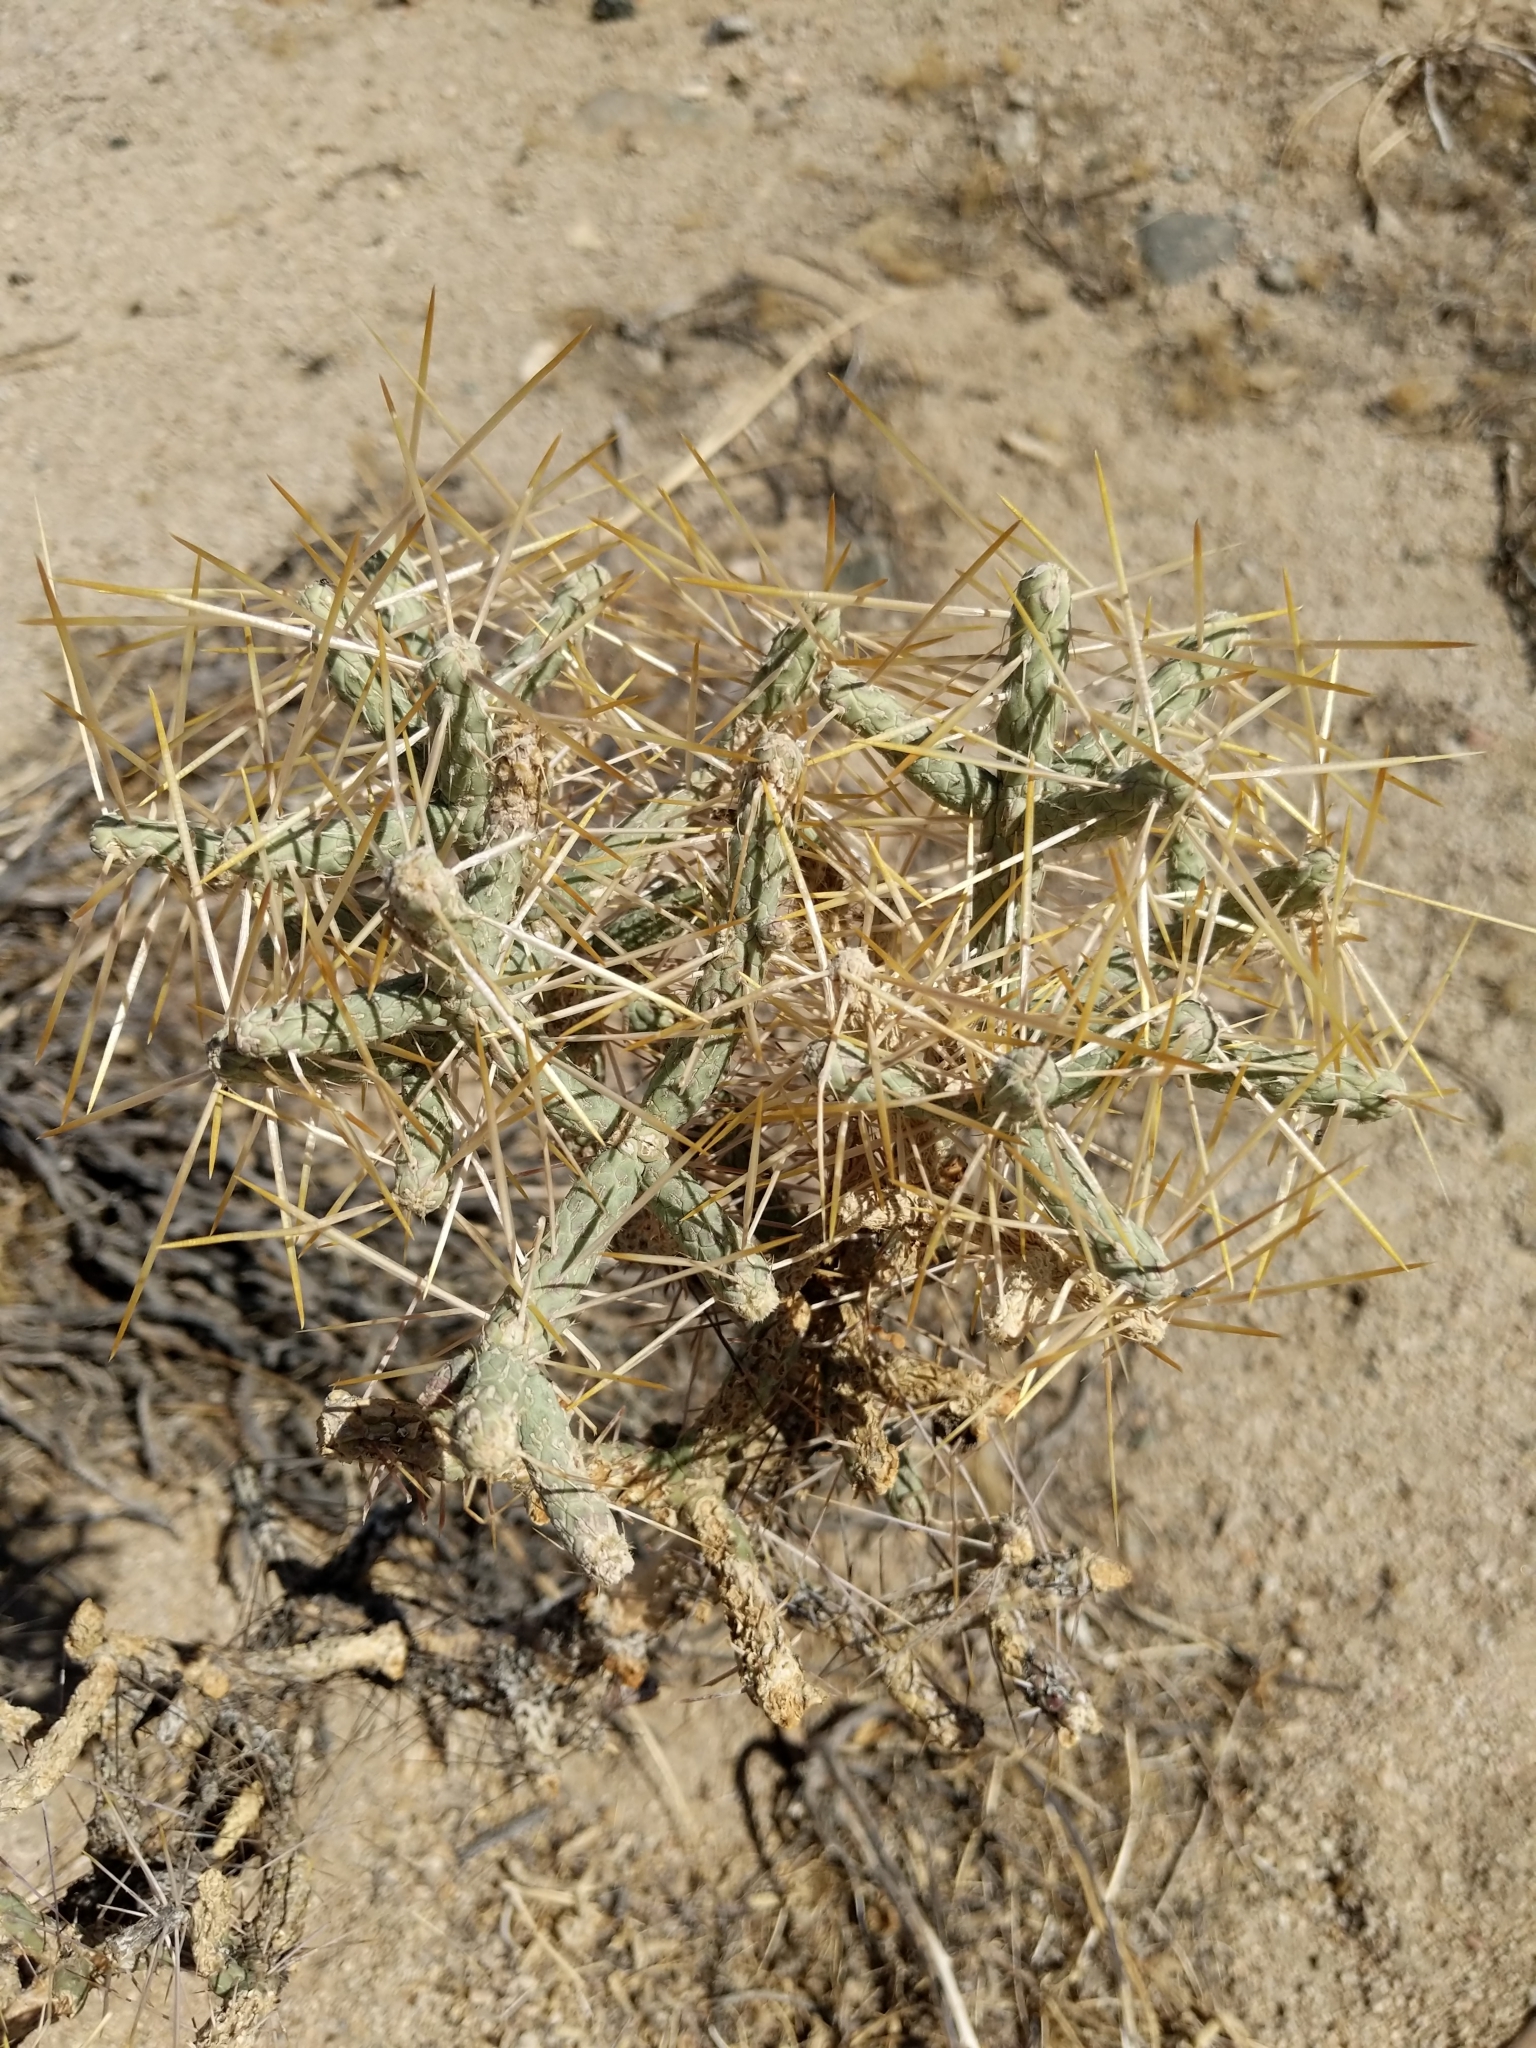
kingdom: Plantae
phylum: Tracheophyta
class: Magnoliopsida
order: Caryophyllales
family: Cactaceae
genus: Cylindropuntia
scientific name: Cylindropuntia ramosissima
